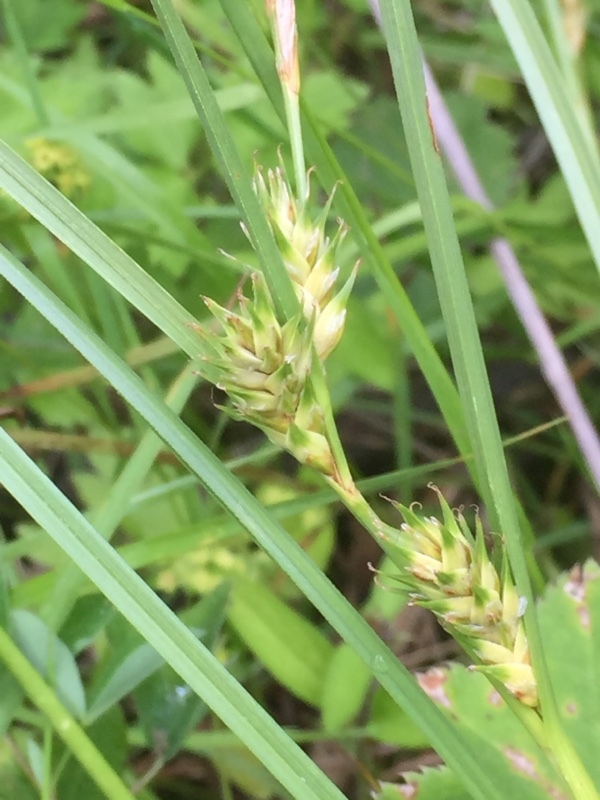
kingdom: Plantae
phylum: Tracheophyta
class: Liliopsida
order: Poales
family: Cyperaceae
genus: Carex
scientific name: Carex hordeistichos
